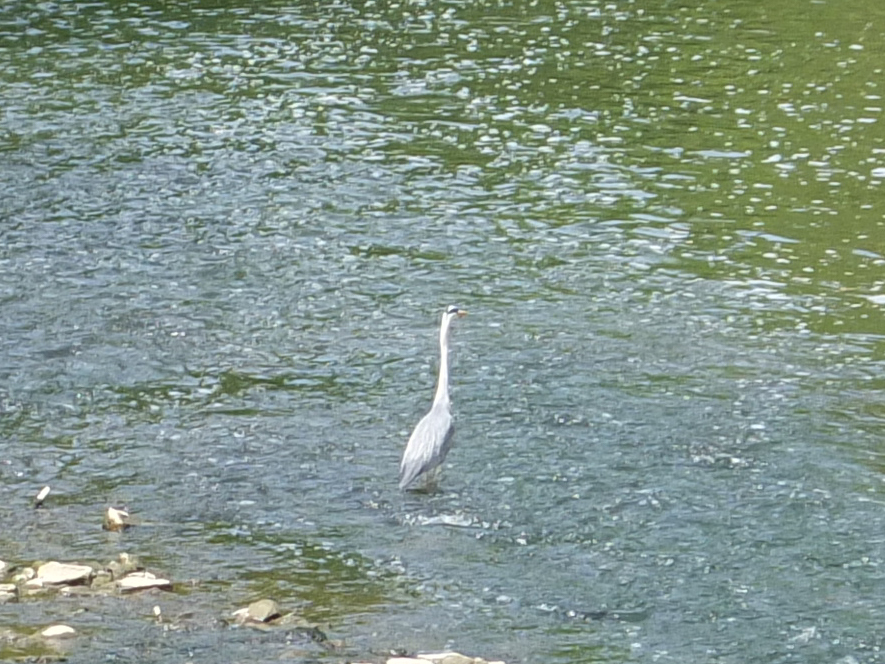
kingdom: Animalia
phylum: Chordata
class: Aves
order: Pelecaniformes
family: Ardeidae
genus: Ardea
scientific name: Ardea cinerea
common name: Grey heron
